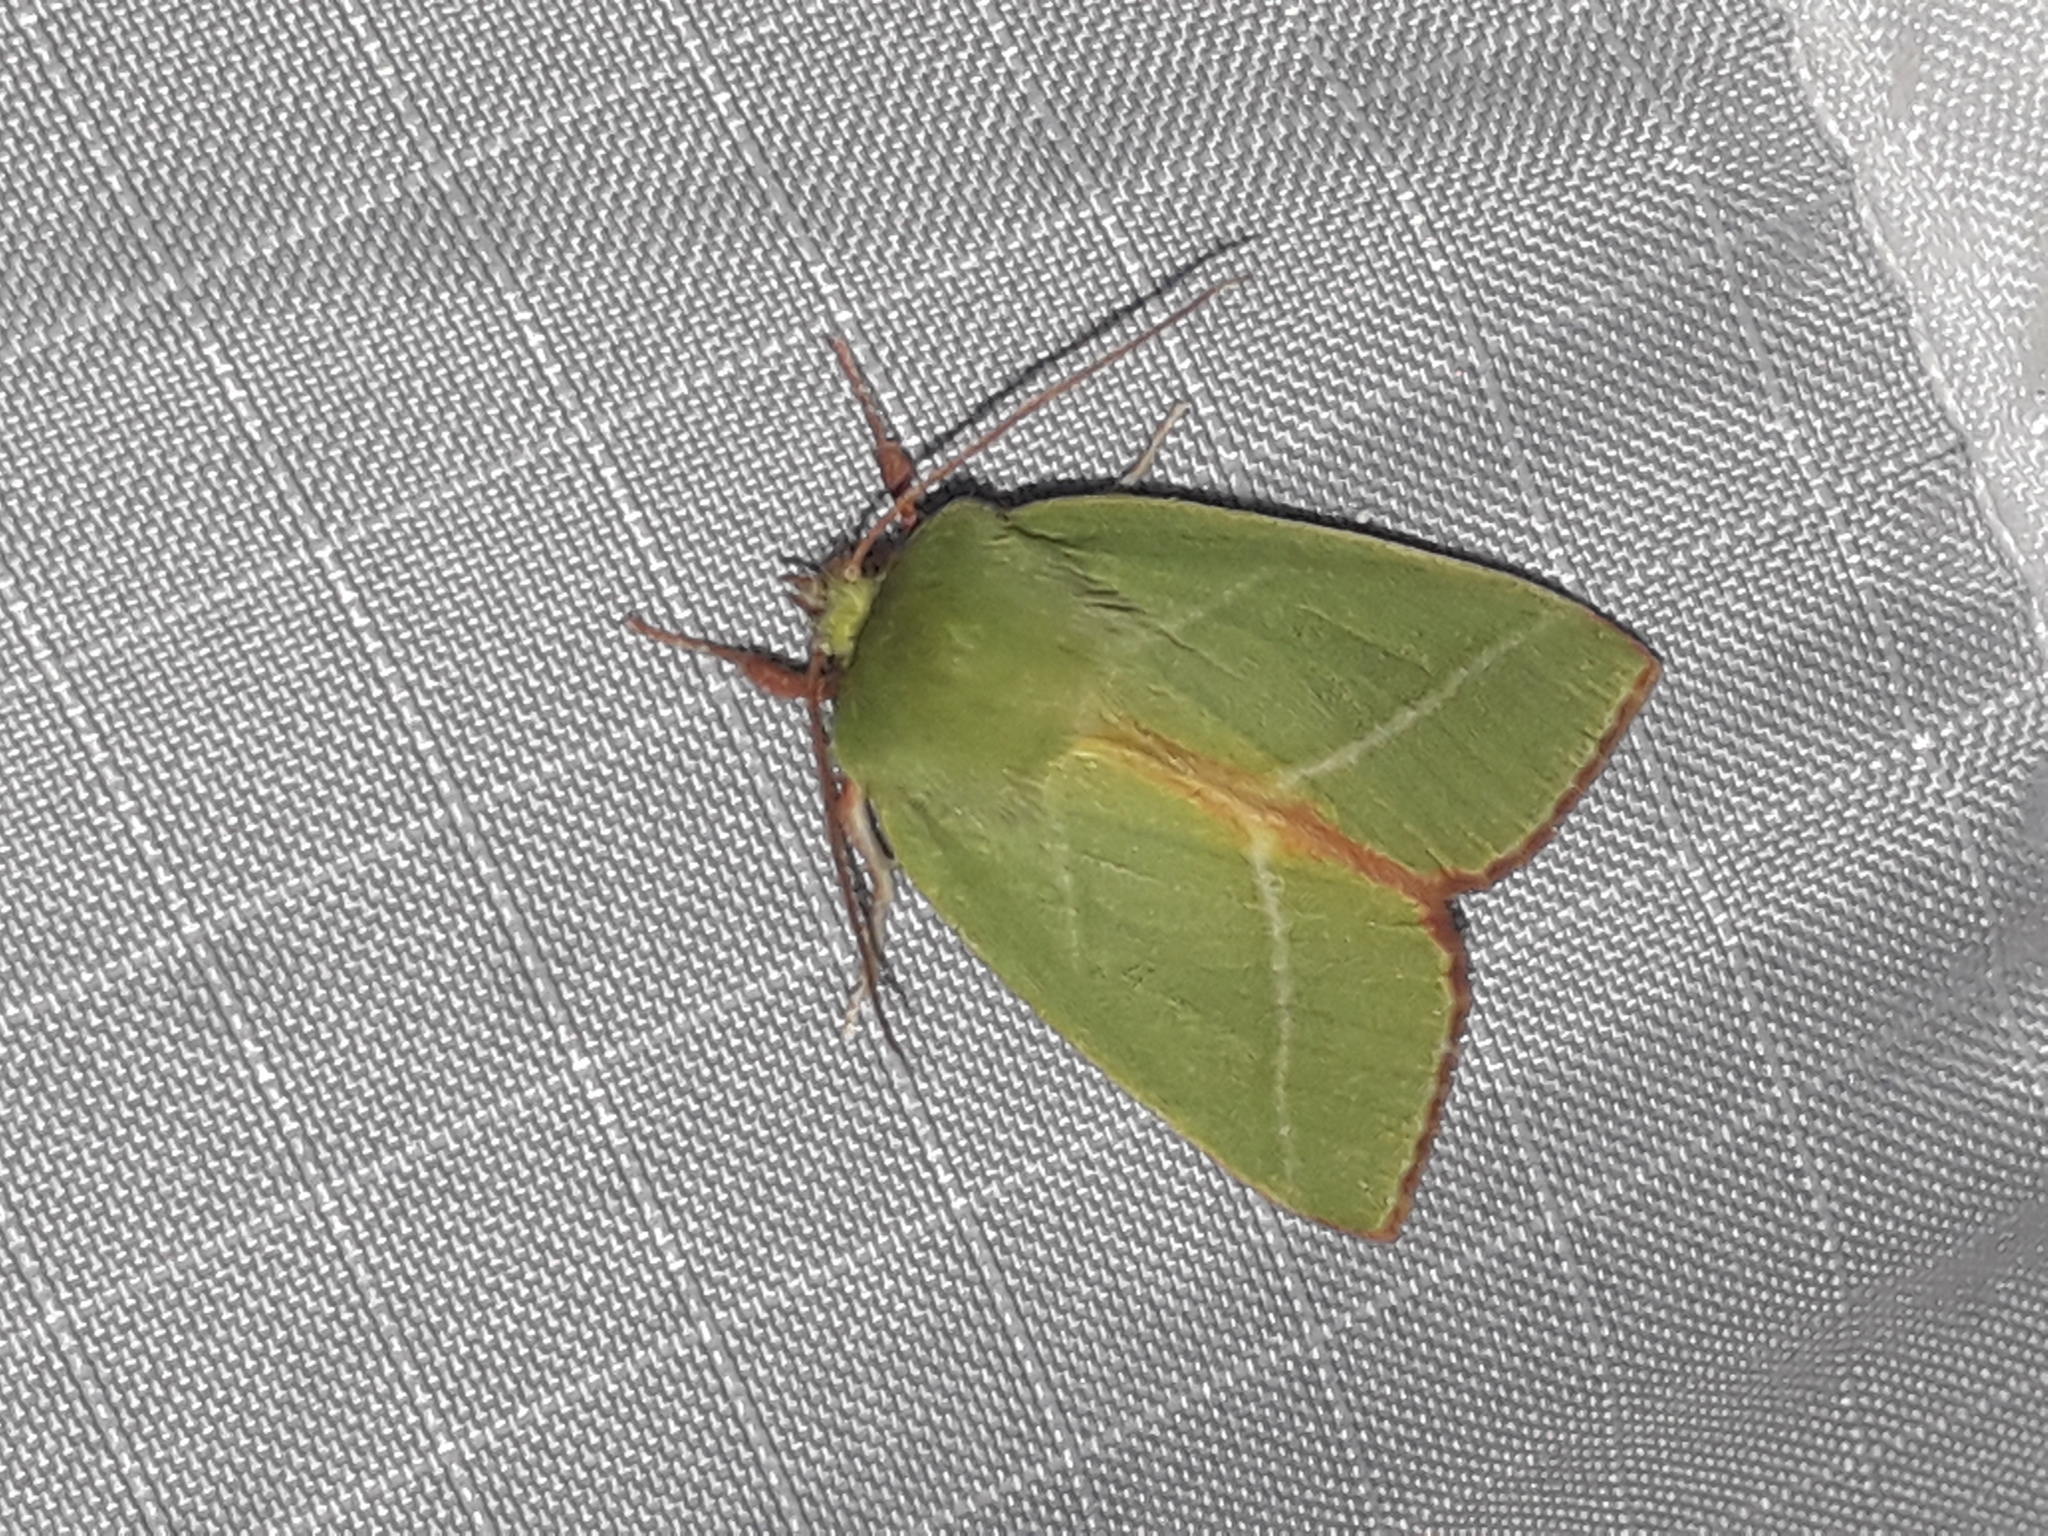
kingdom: Animalia
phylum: Arthropoda
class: Insecta
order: Lepidoptera
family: Nolidae
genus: Pseudoips
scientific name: Pseudoips prasinana
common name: Green silver-lines
